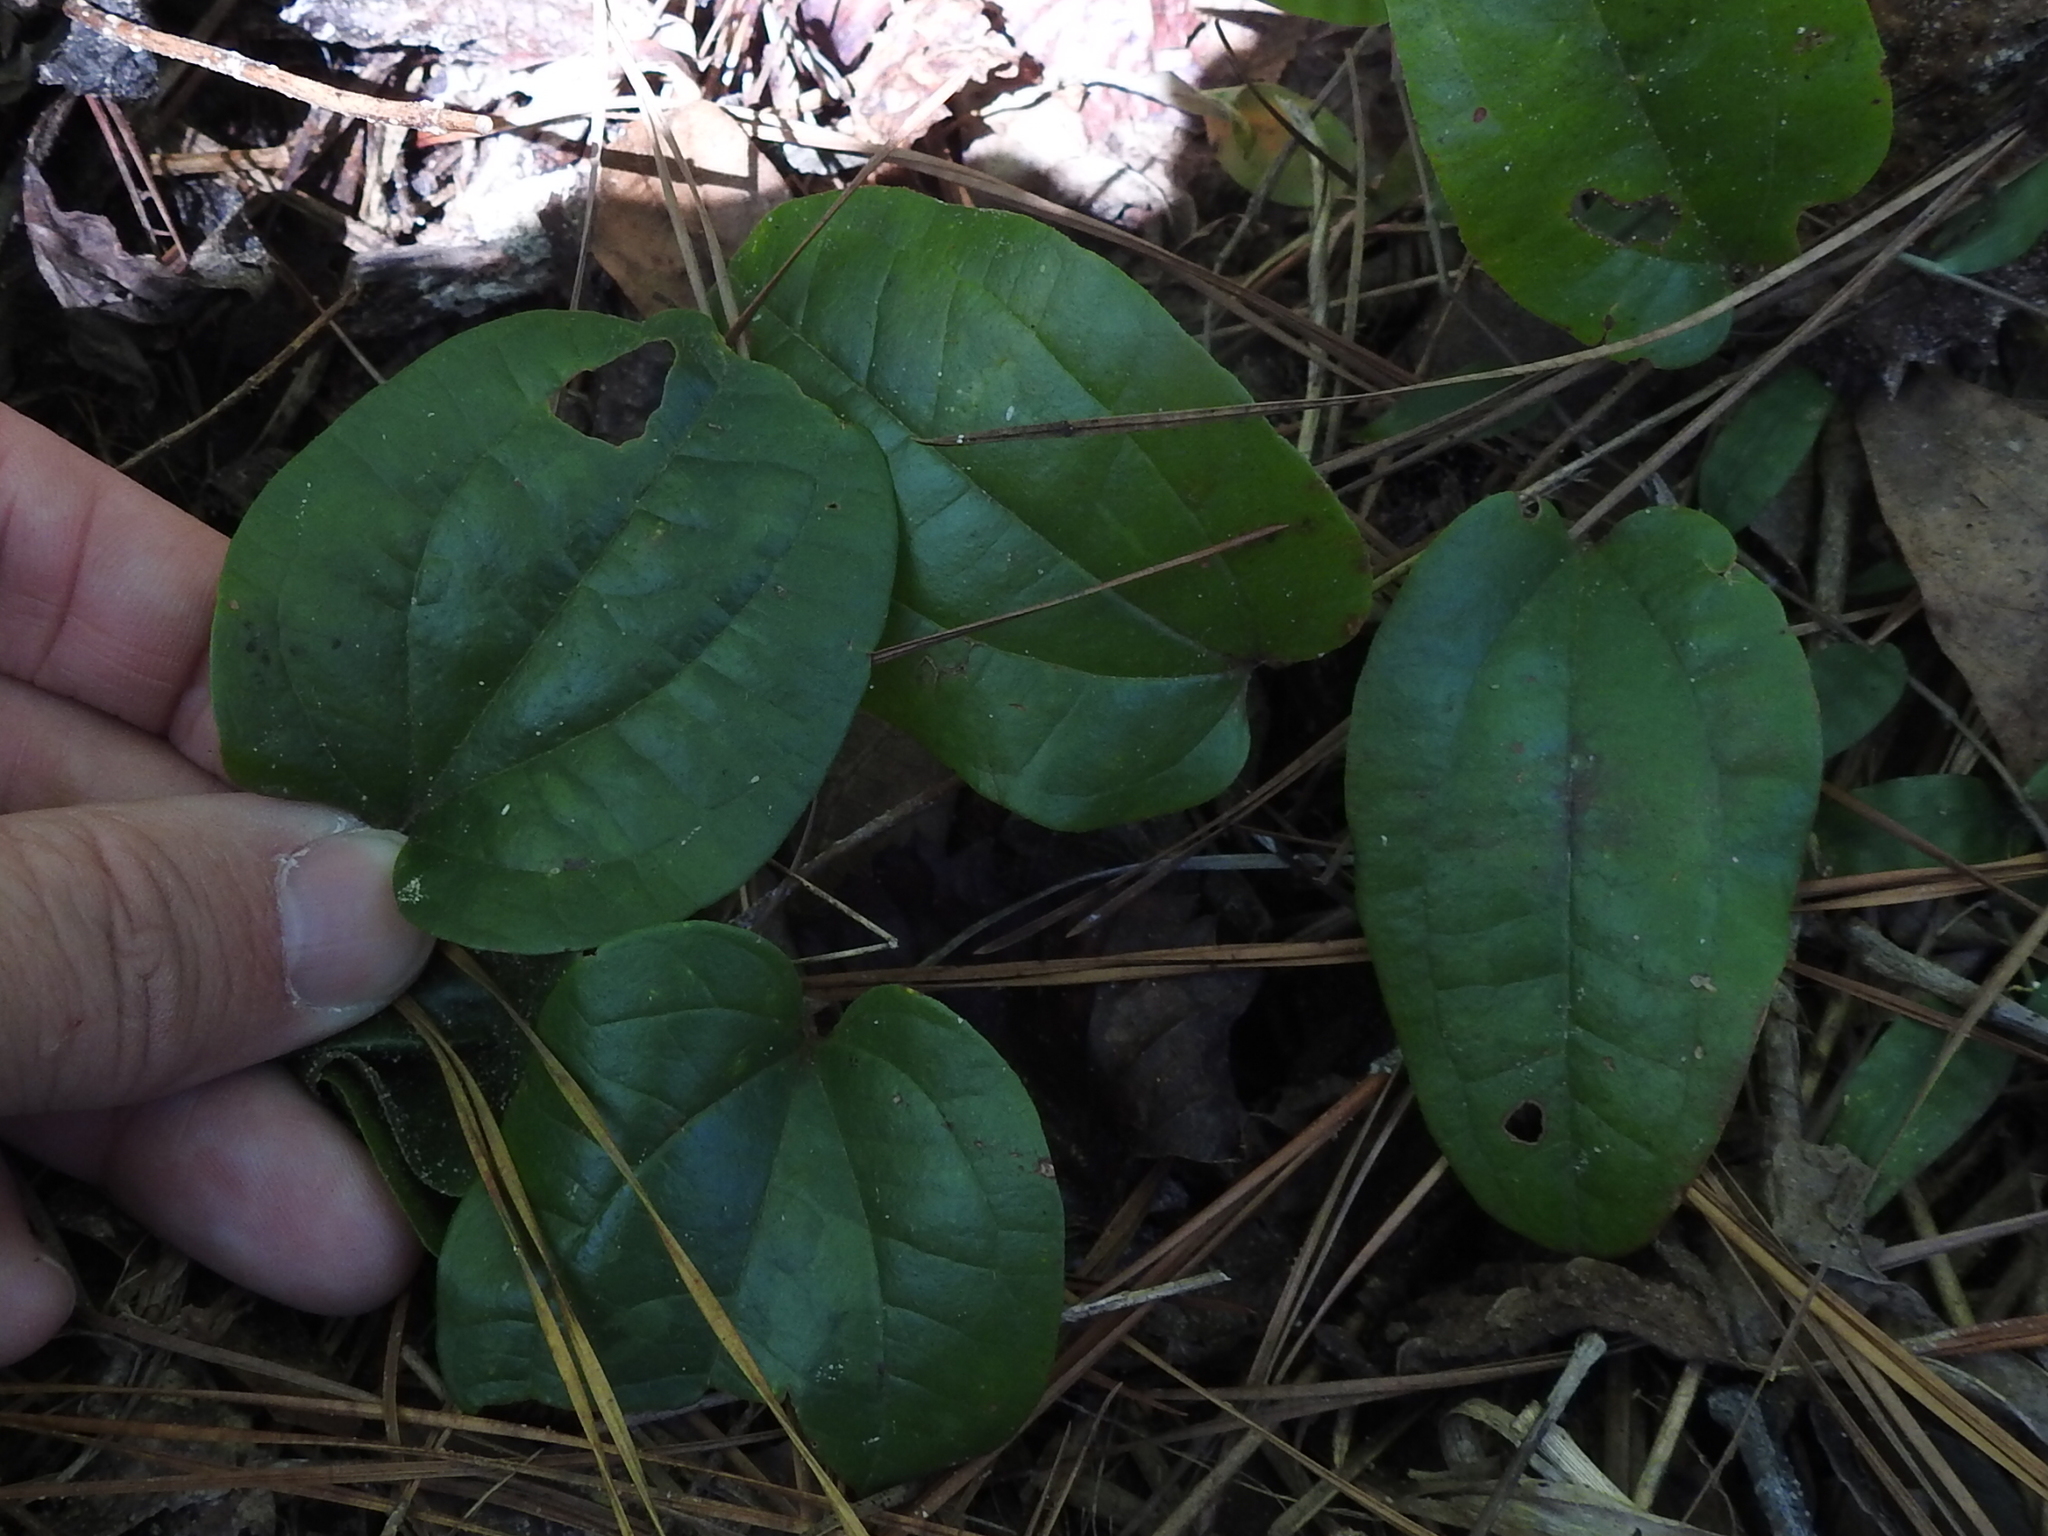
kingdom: Plantae
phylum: Tracheophyta
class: Liliopsida
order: Liliales
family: Smilacaceae
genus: Smilax
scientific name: Smilax pumila
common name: Sarsaparilla-vine
